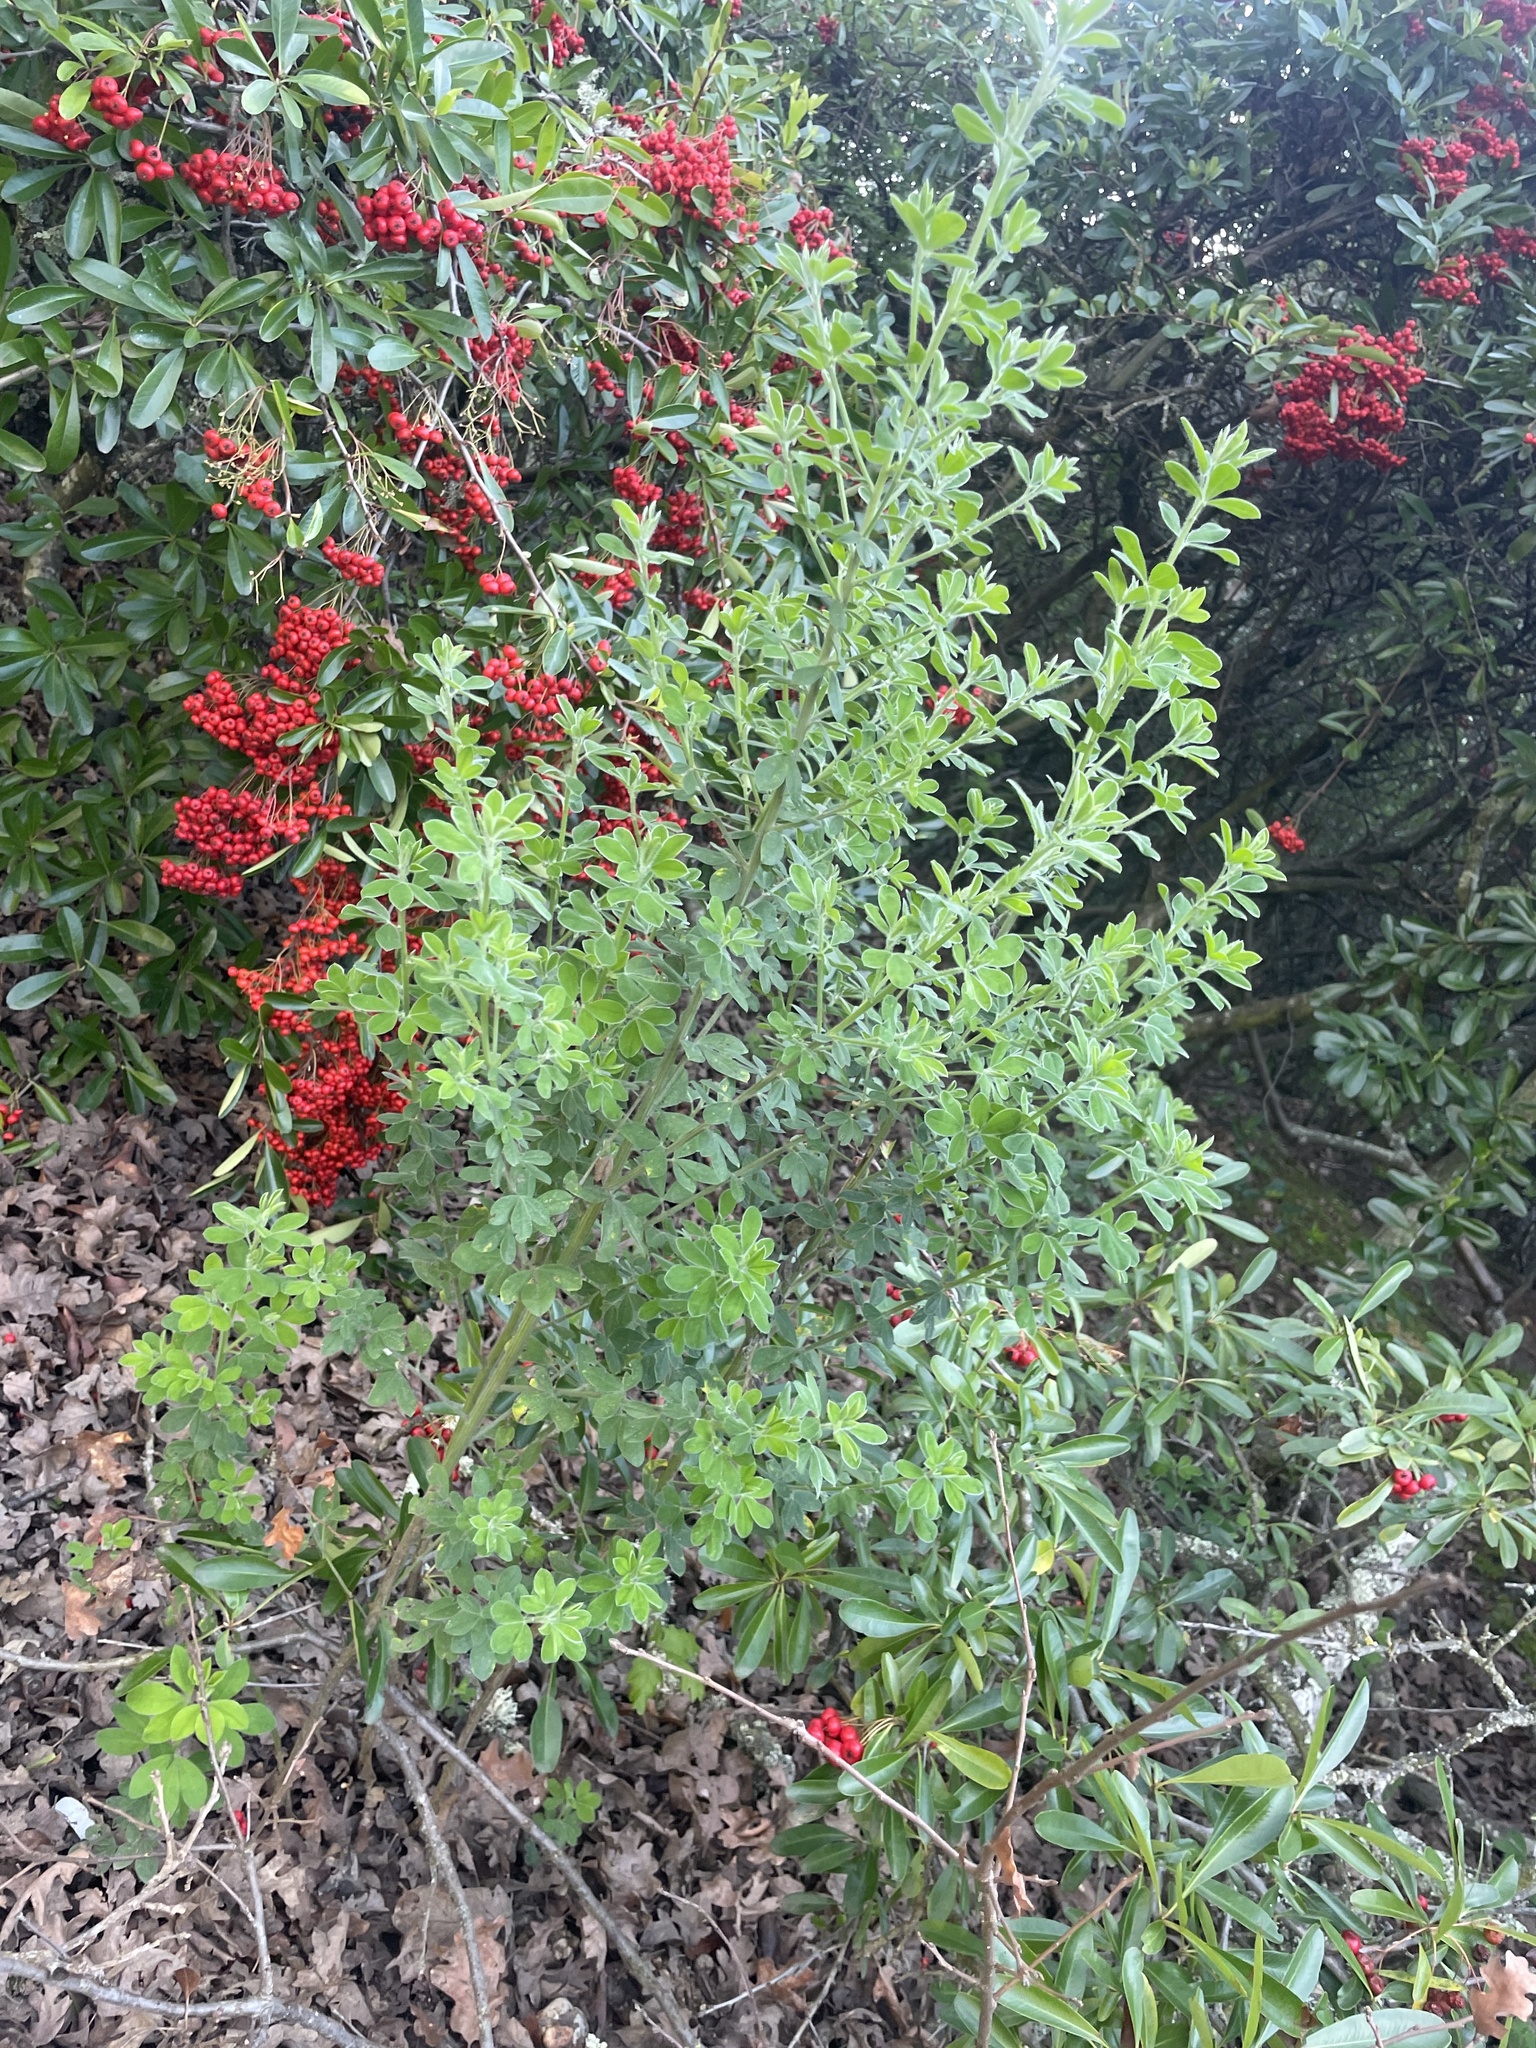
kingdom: Plantae
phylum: Tracheophyta
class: Magnoliopsida
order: Fabales
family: Fabaceae
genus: Genista
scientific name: Genista monspessulana
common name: Montpellier broom
